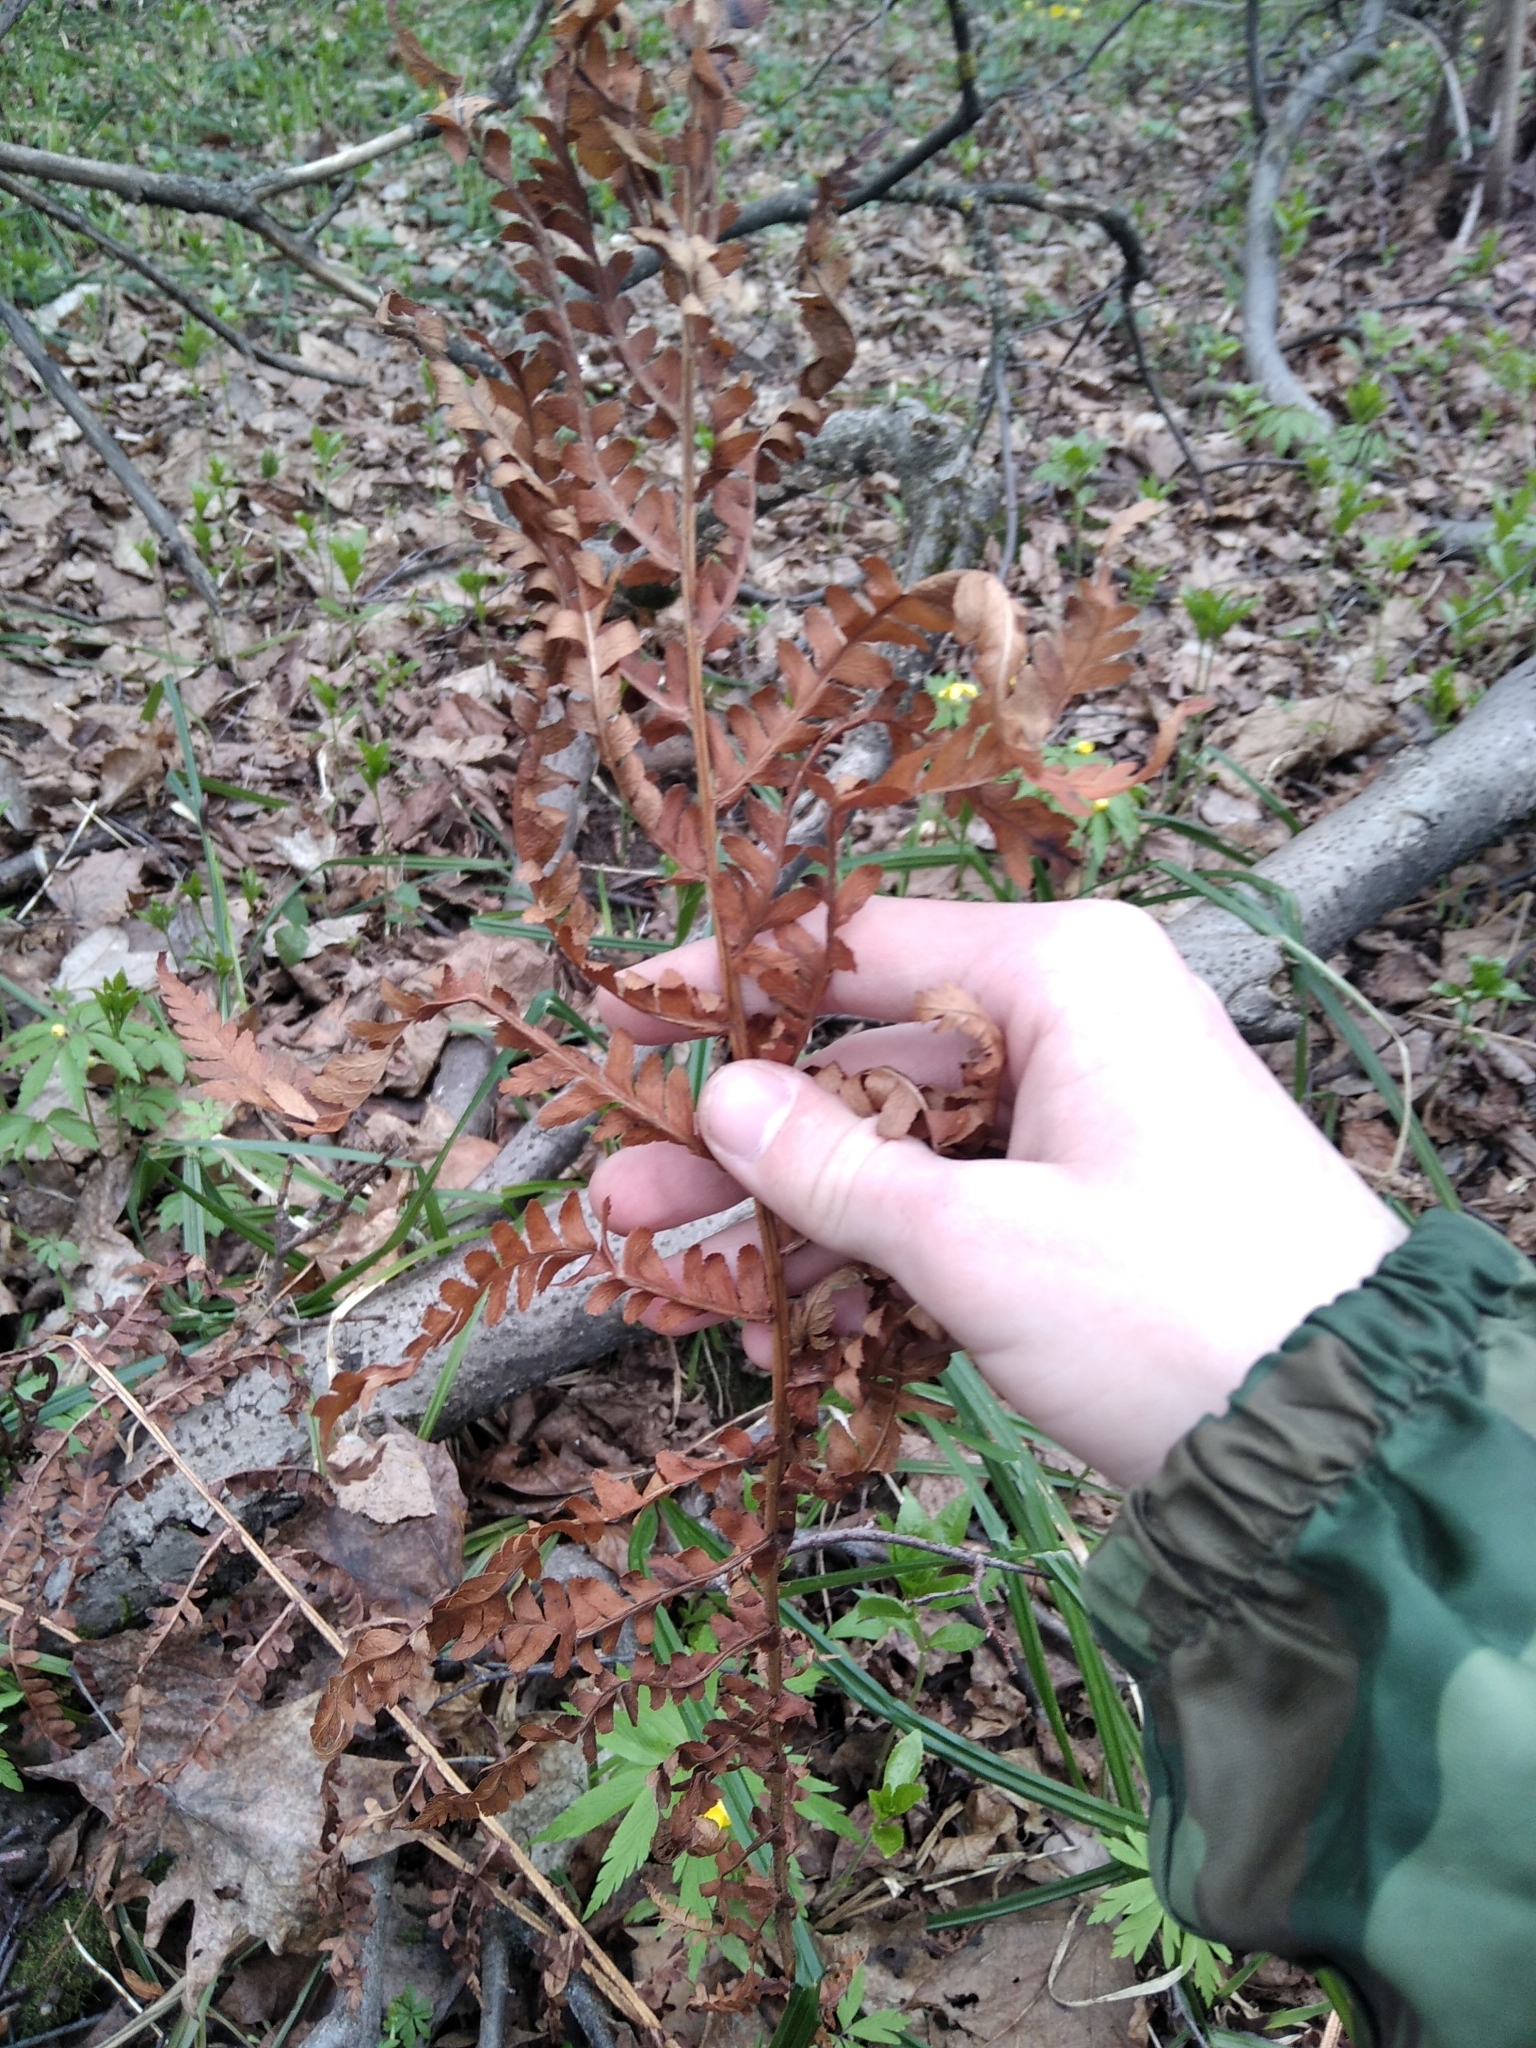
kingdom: Plantae
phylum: Tracheophyta
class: Polypodiopsida
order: Polypodiales
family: Dryopteridaceae
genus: Dryopteris
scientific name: Dryopteris filix-mas
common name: Male fern
